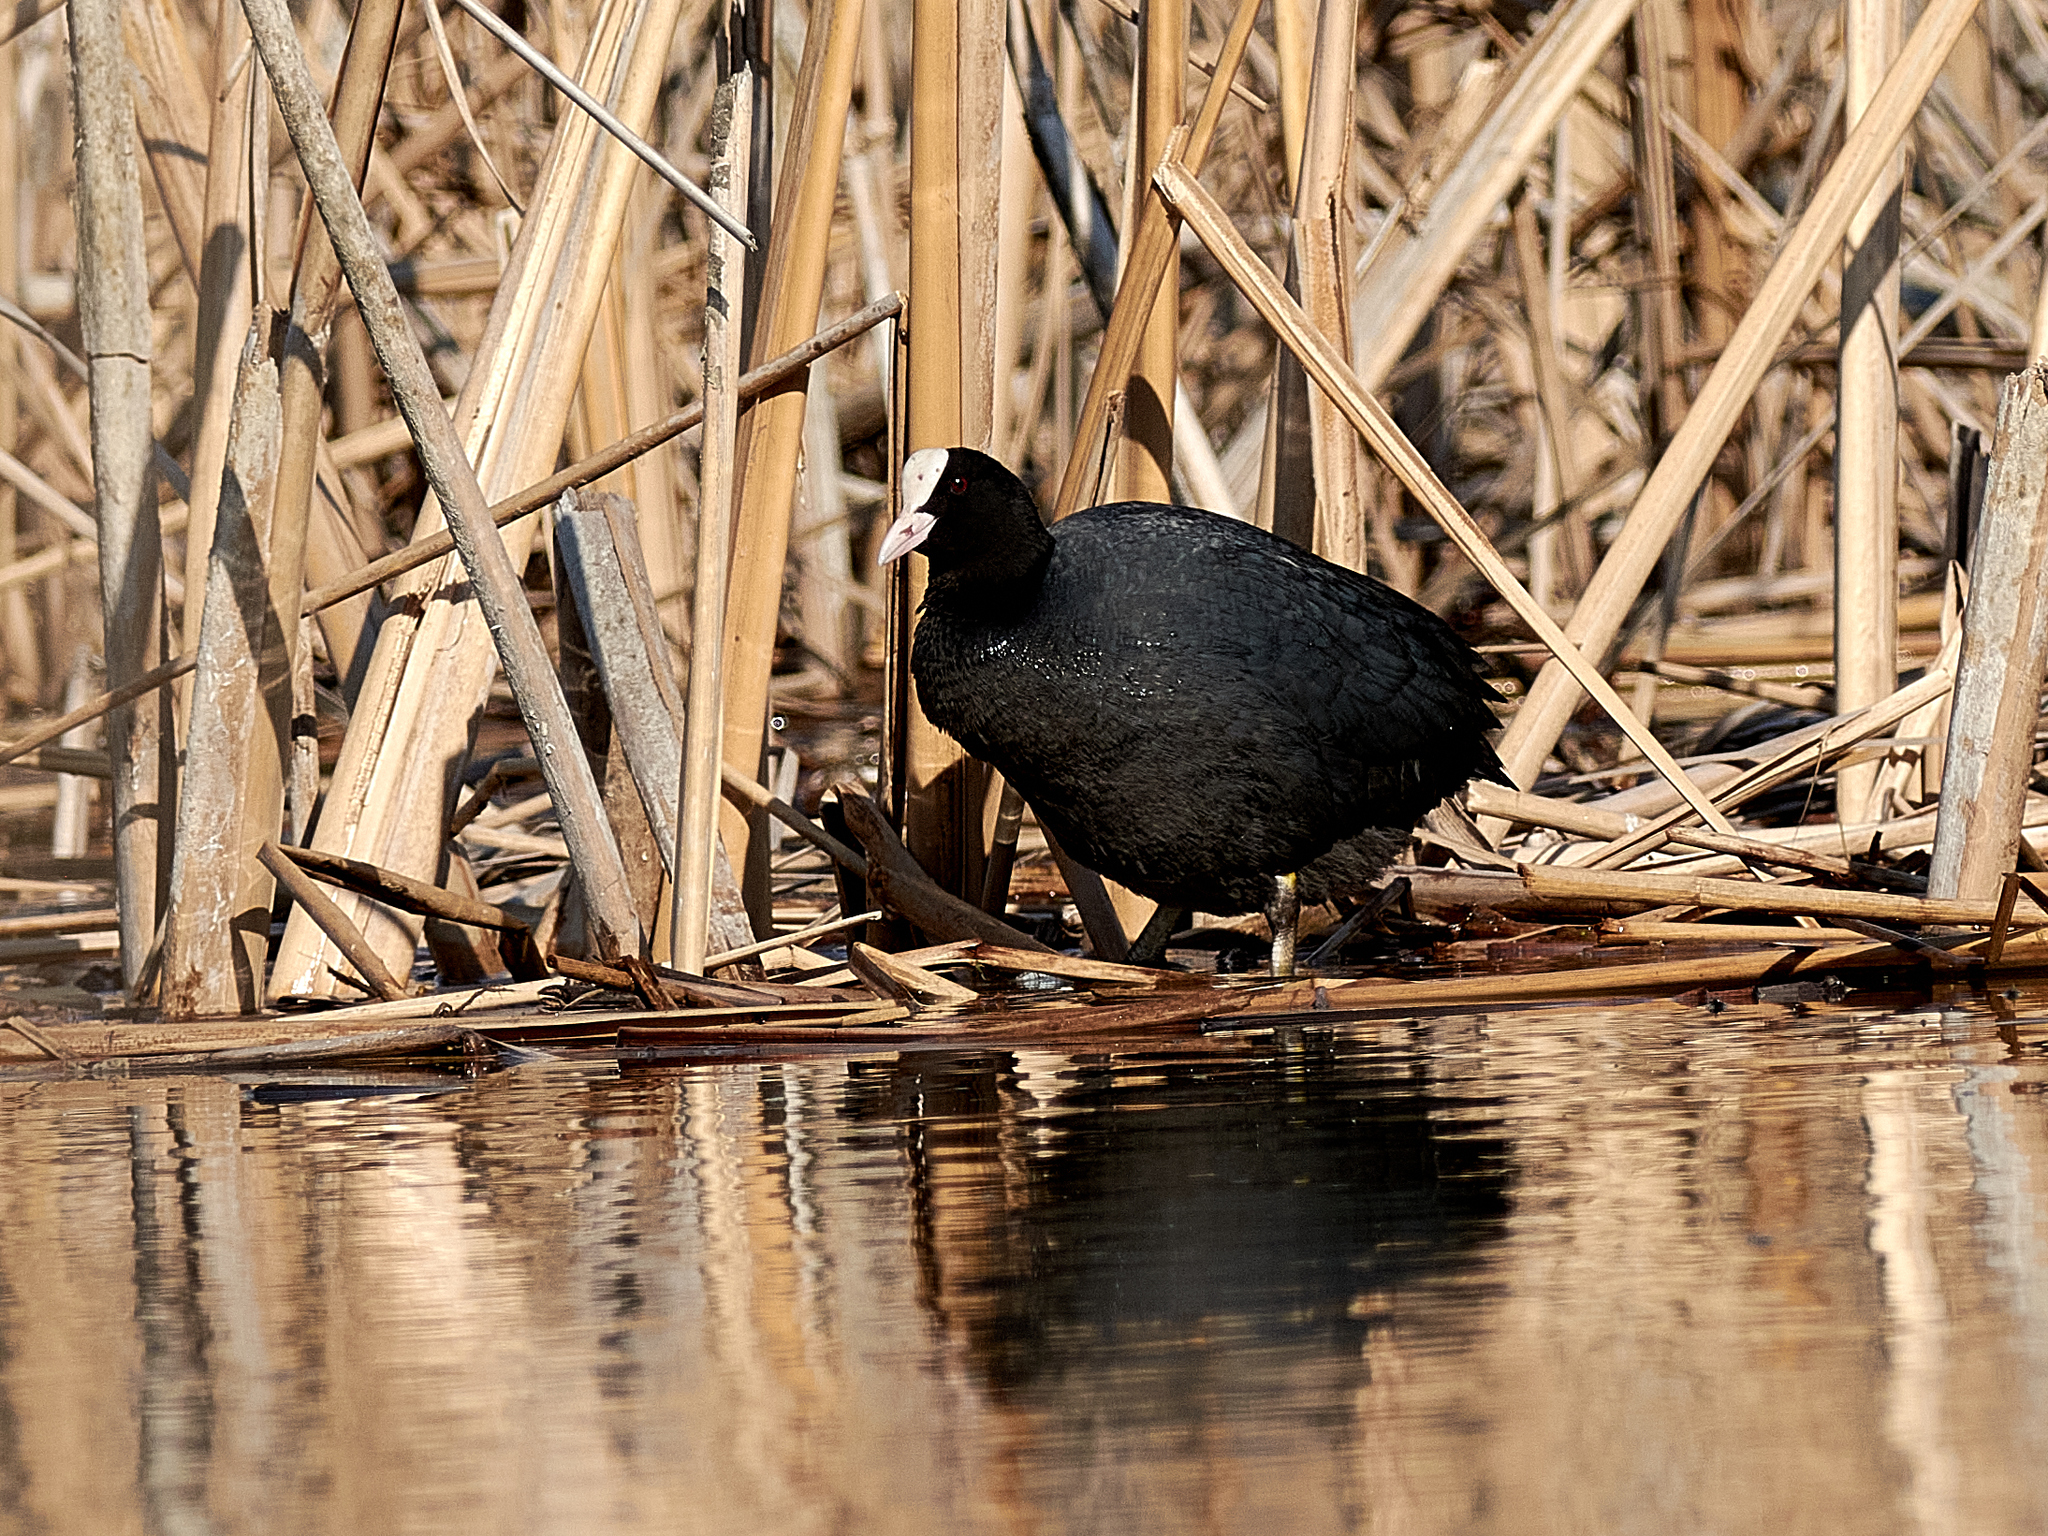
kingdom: Animalia
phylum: Chordata
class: Aves
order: Gruiformes
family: Rallidae
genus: Fulica
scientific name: Fulica atra
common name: Eurasian coot
